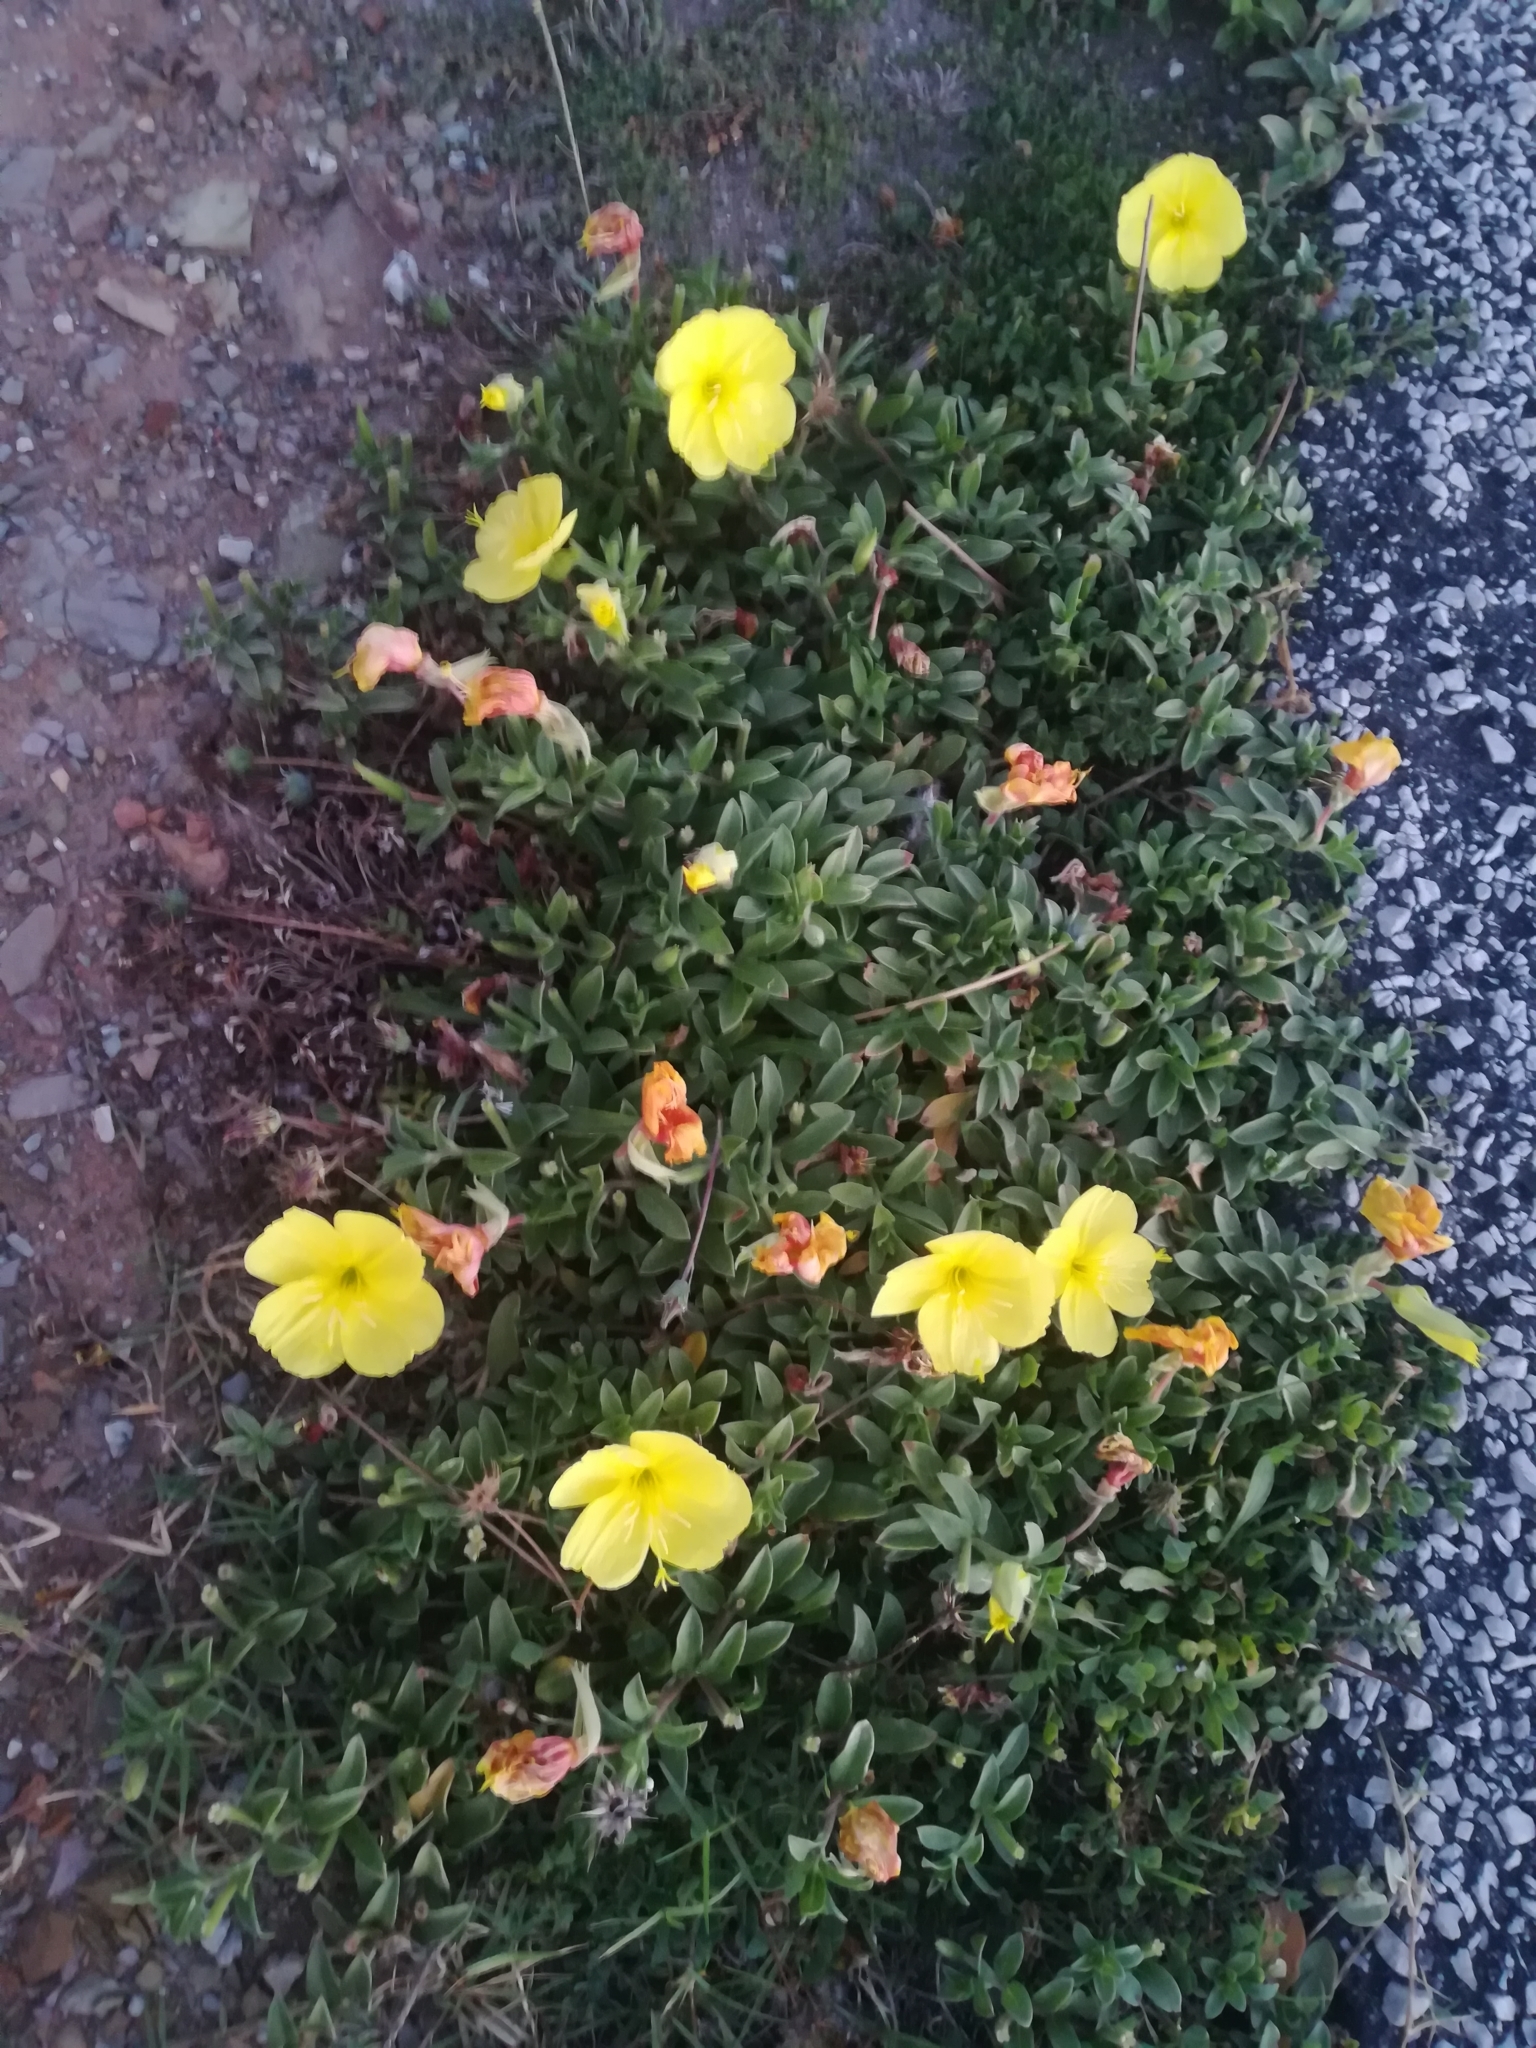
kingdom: Plantae
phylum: Tracheophyta
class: Magnoliopsida
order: Myrtales
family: Onagraceae
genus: Oenothera
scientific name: Oenothera drummondii
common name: Beach evening-primrose
